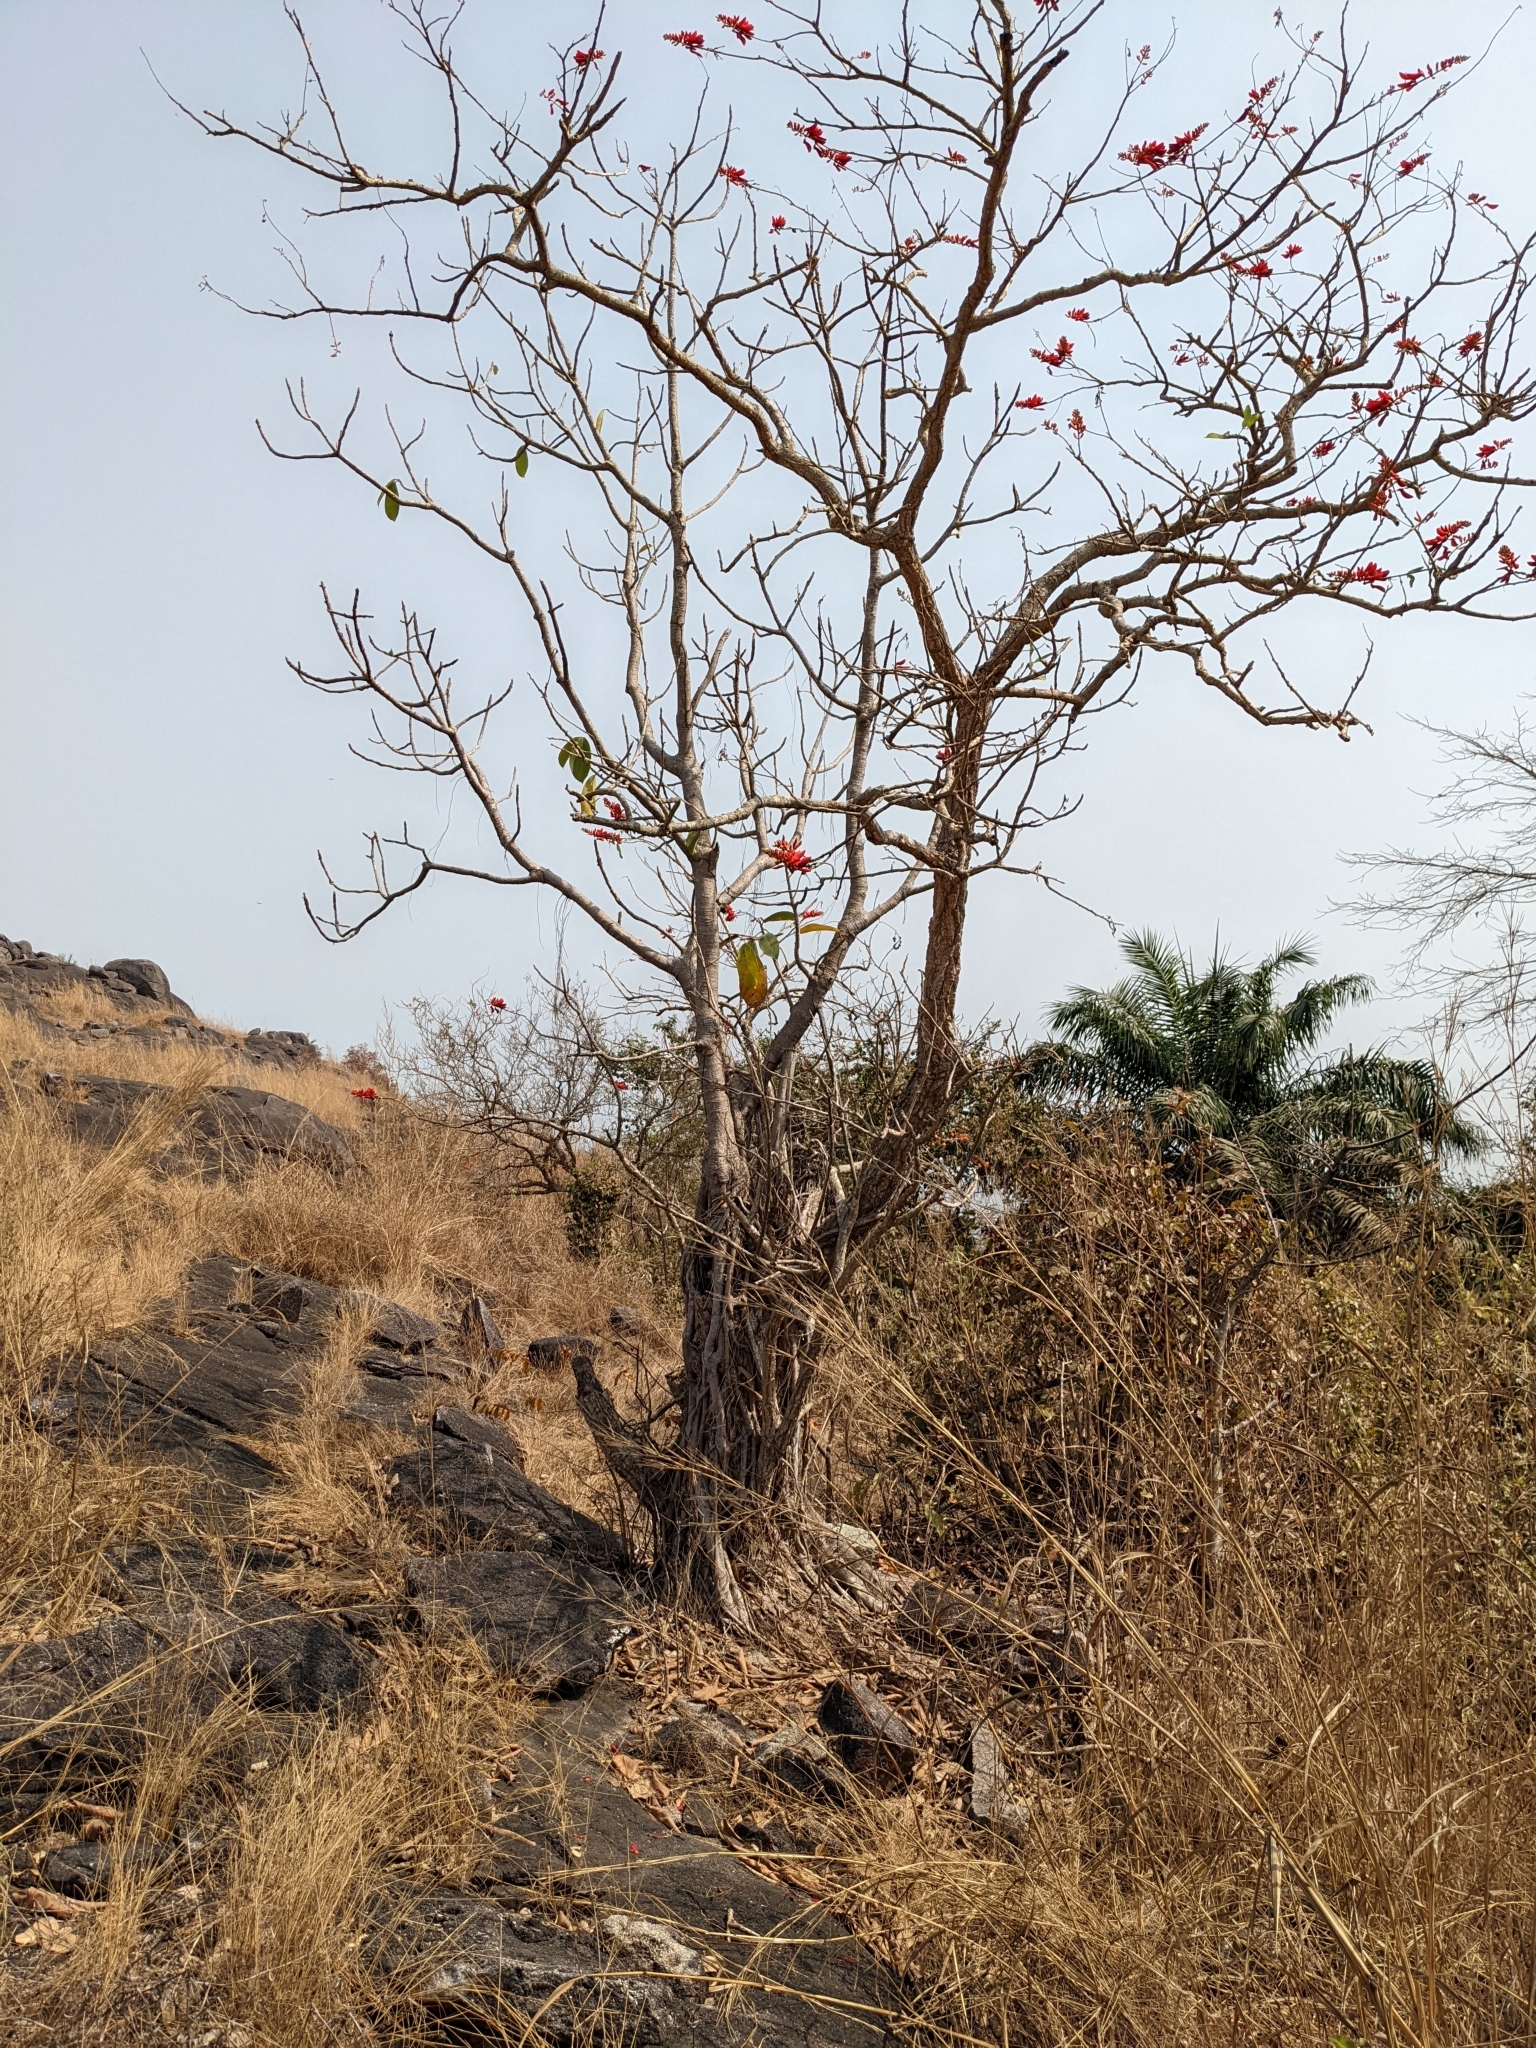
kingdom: Plantae
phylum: Tracheophyta
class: Magnoliopsida
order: Fabales
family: Fabaceae
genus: Erythrina
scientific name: Erythrina senegalensis
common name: Senegal coraltree
